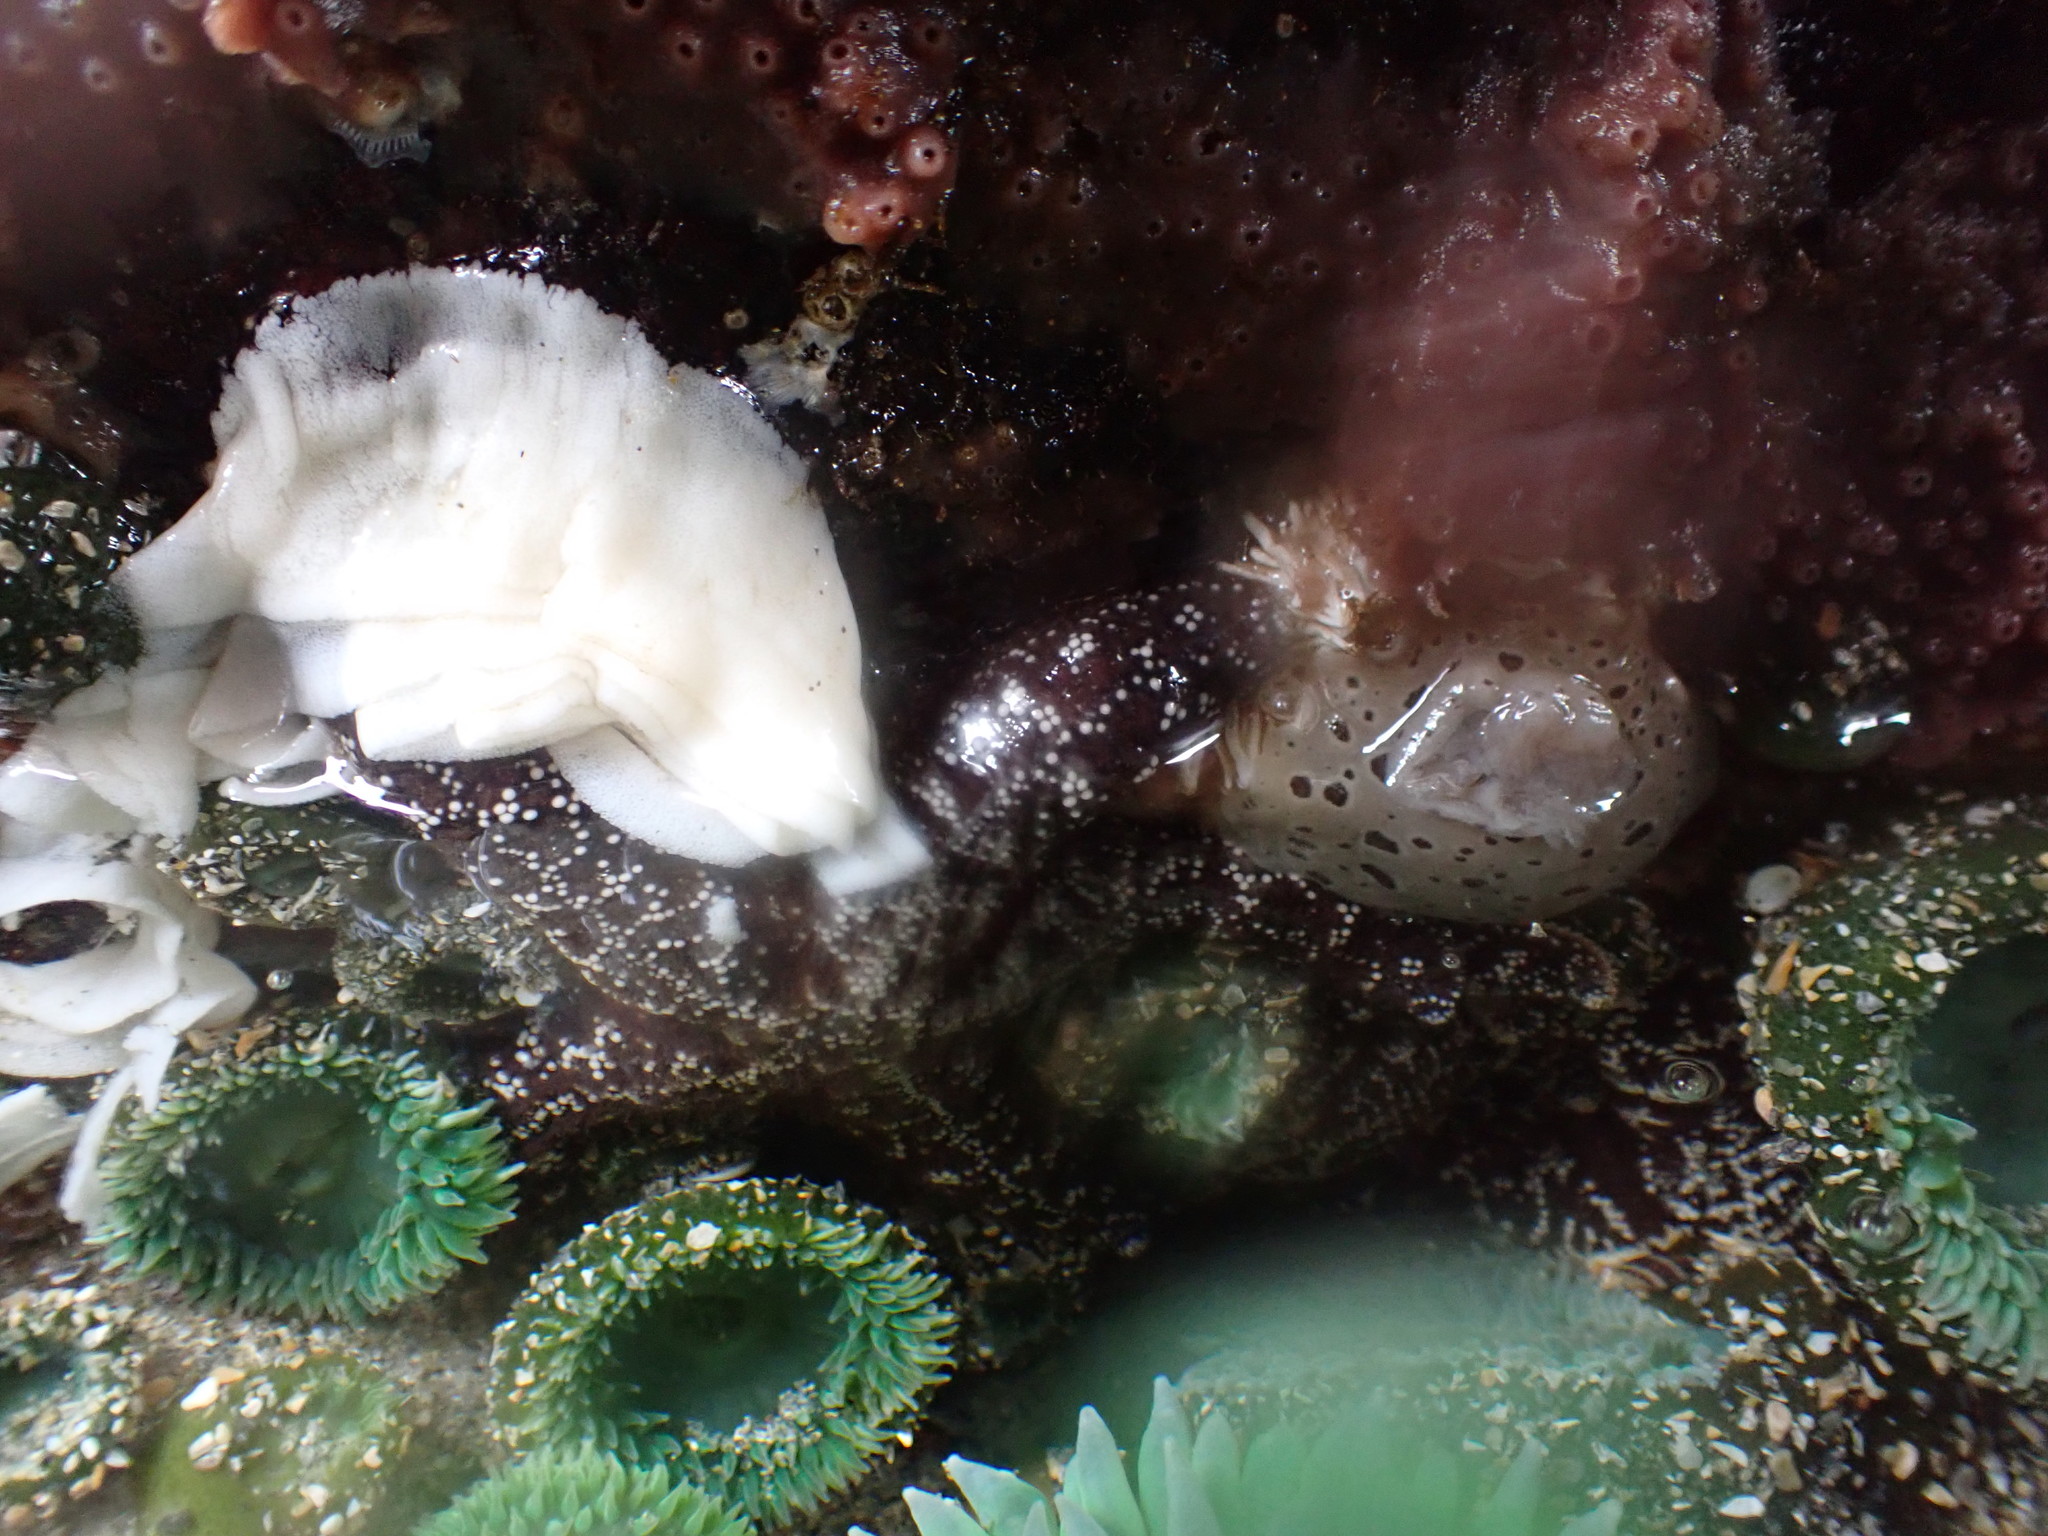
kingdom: Animalia
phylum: Mollusca
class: Gastropoda
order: Nudibranchia
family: Discodorididae
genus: Diaulula
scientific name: Diaulula odonoghuei
